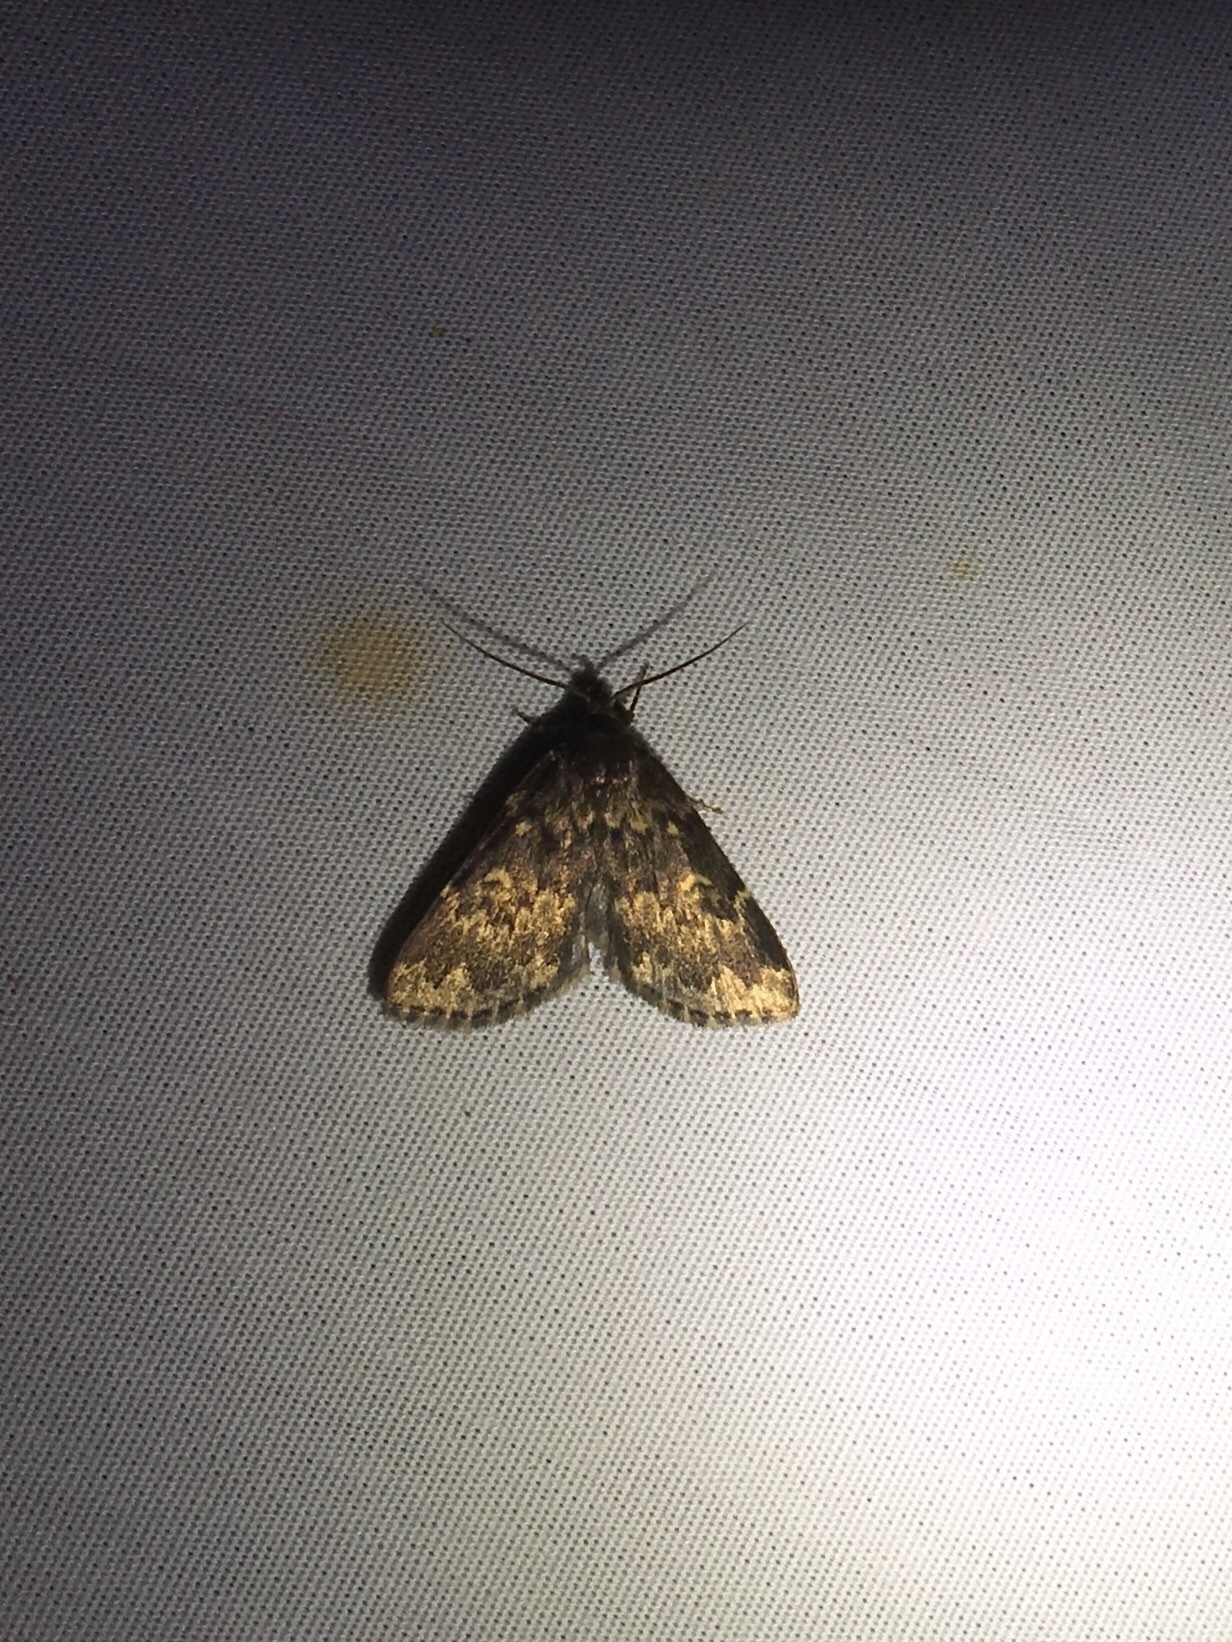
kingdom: Animalia
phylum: Arthropoda
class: Insecta
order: Lepidoptera
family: Erebidae
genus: Idia
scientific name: Idia lubricalis
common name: Twin-striped tabby
